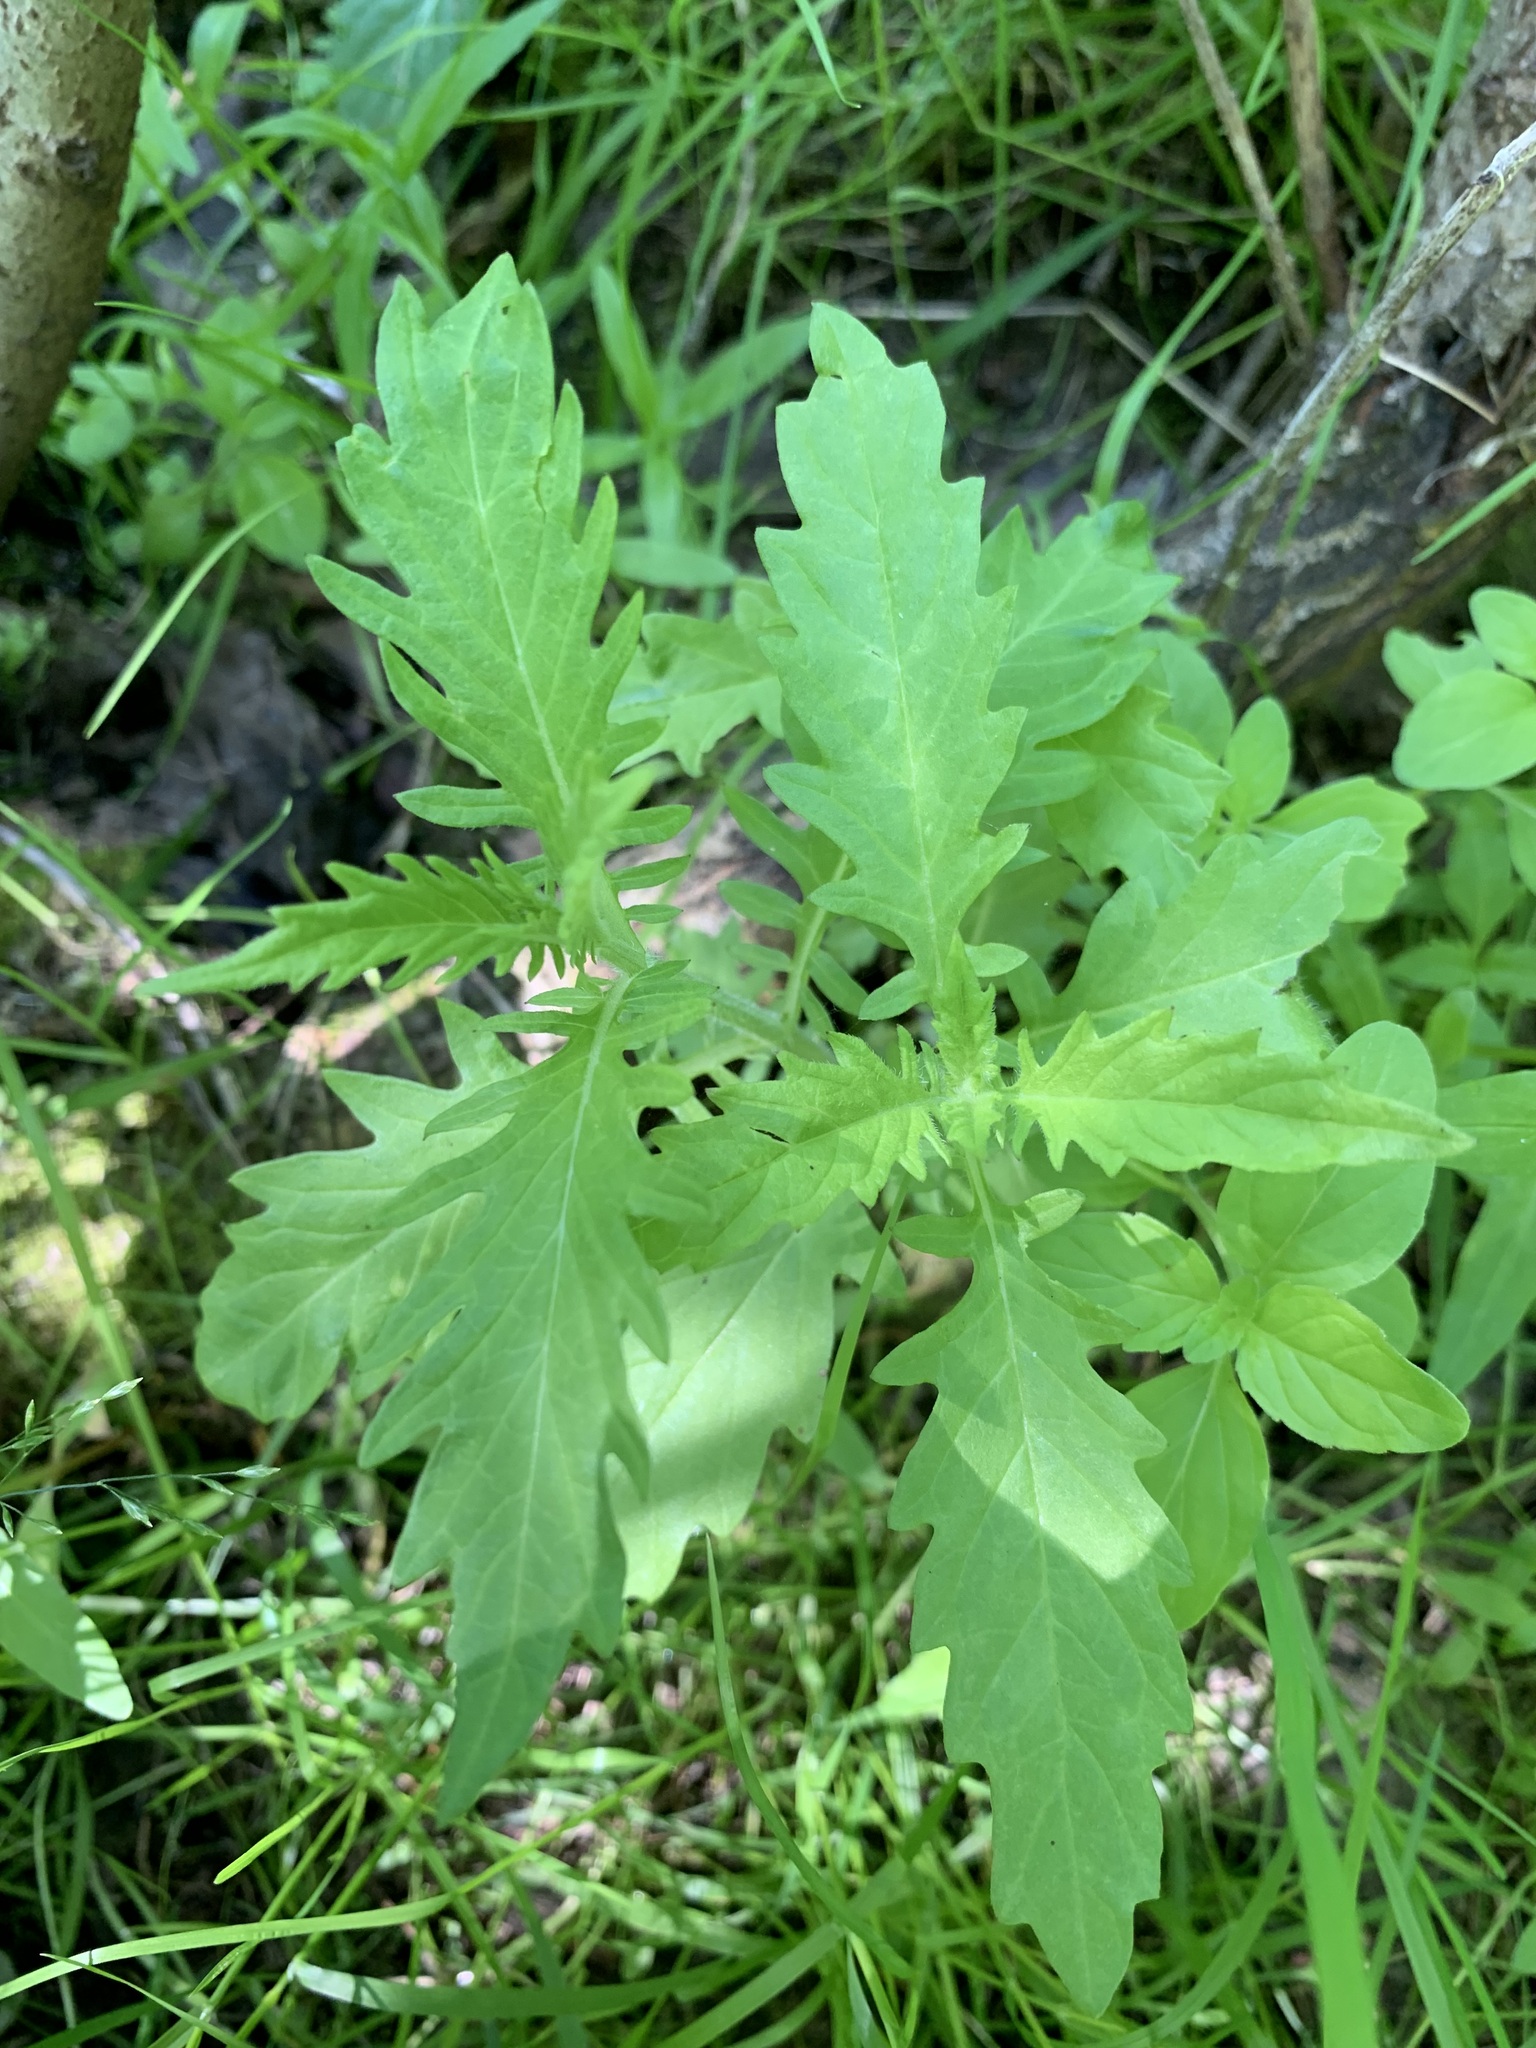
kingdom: Plantae
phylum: Tracheophyta
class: Magnoliopsida
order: Lamiales
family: Lamiaceae
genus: Lycopus
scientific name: Lycopus europaeus
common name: European bugleweed
